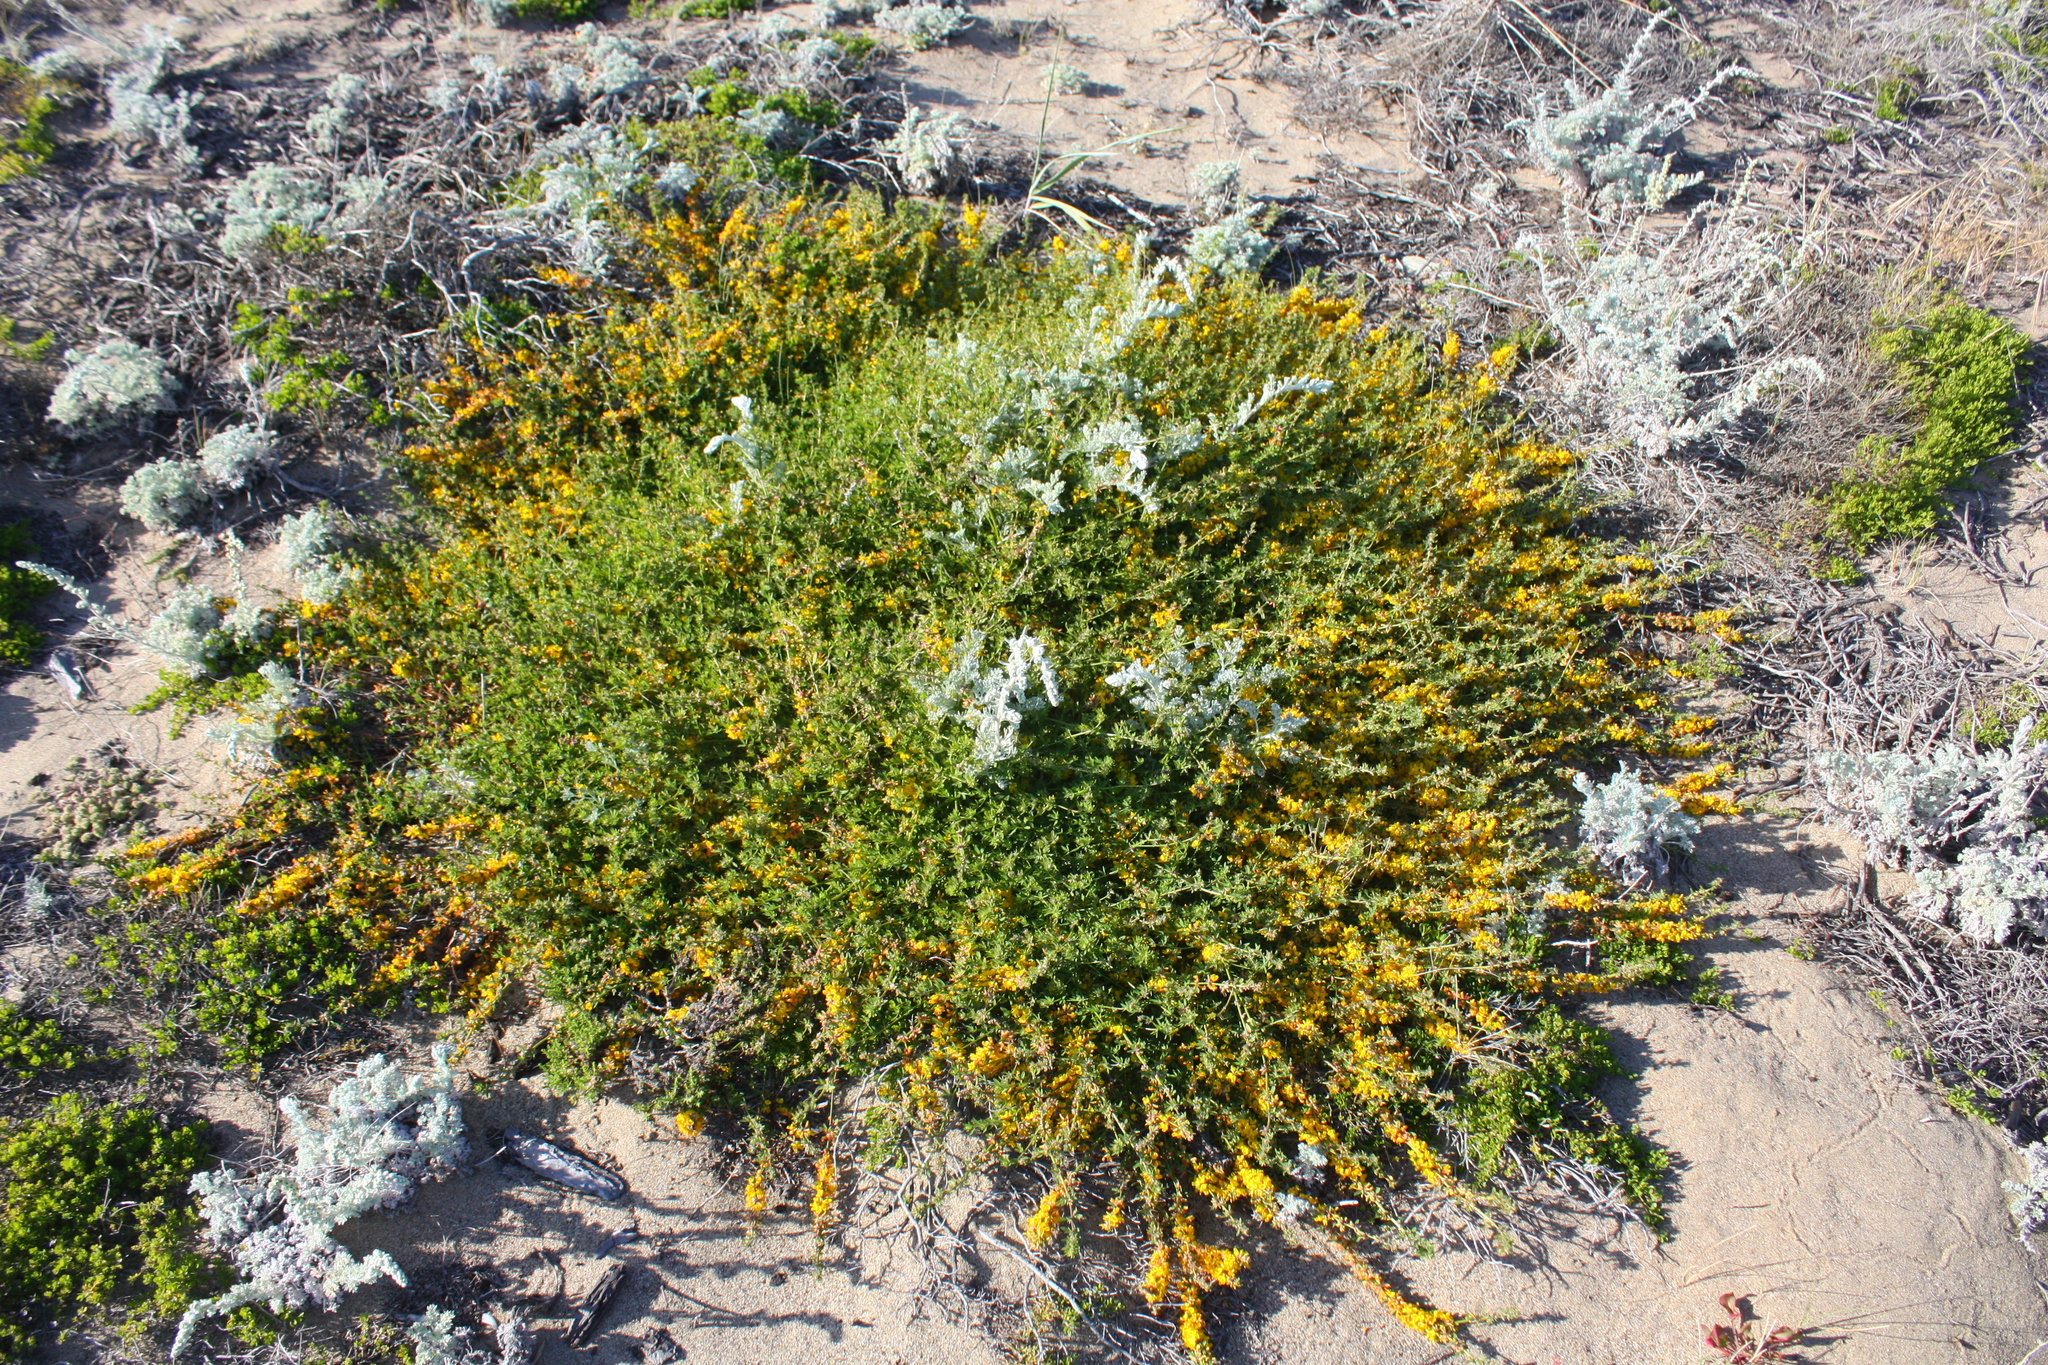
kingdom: Plantae
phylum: Tracheophyta
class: Magnoliopsida
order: Fabales
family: Fabaceae
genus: Acmispon
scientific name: Acmispon glaber
